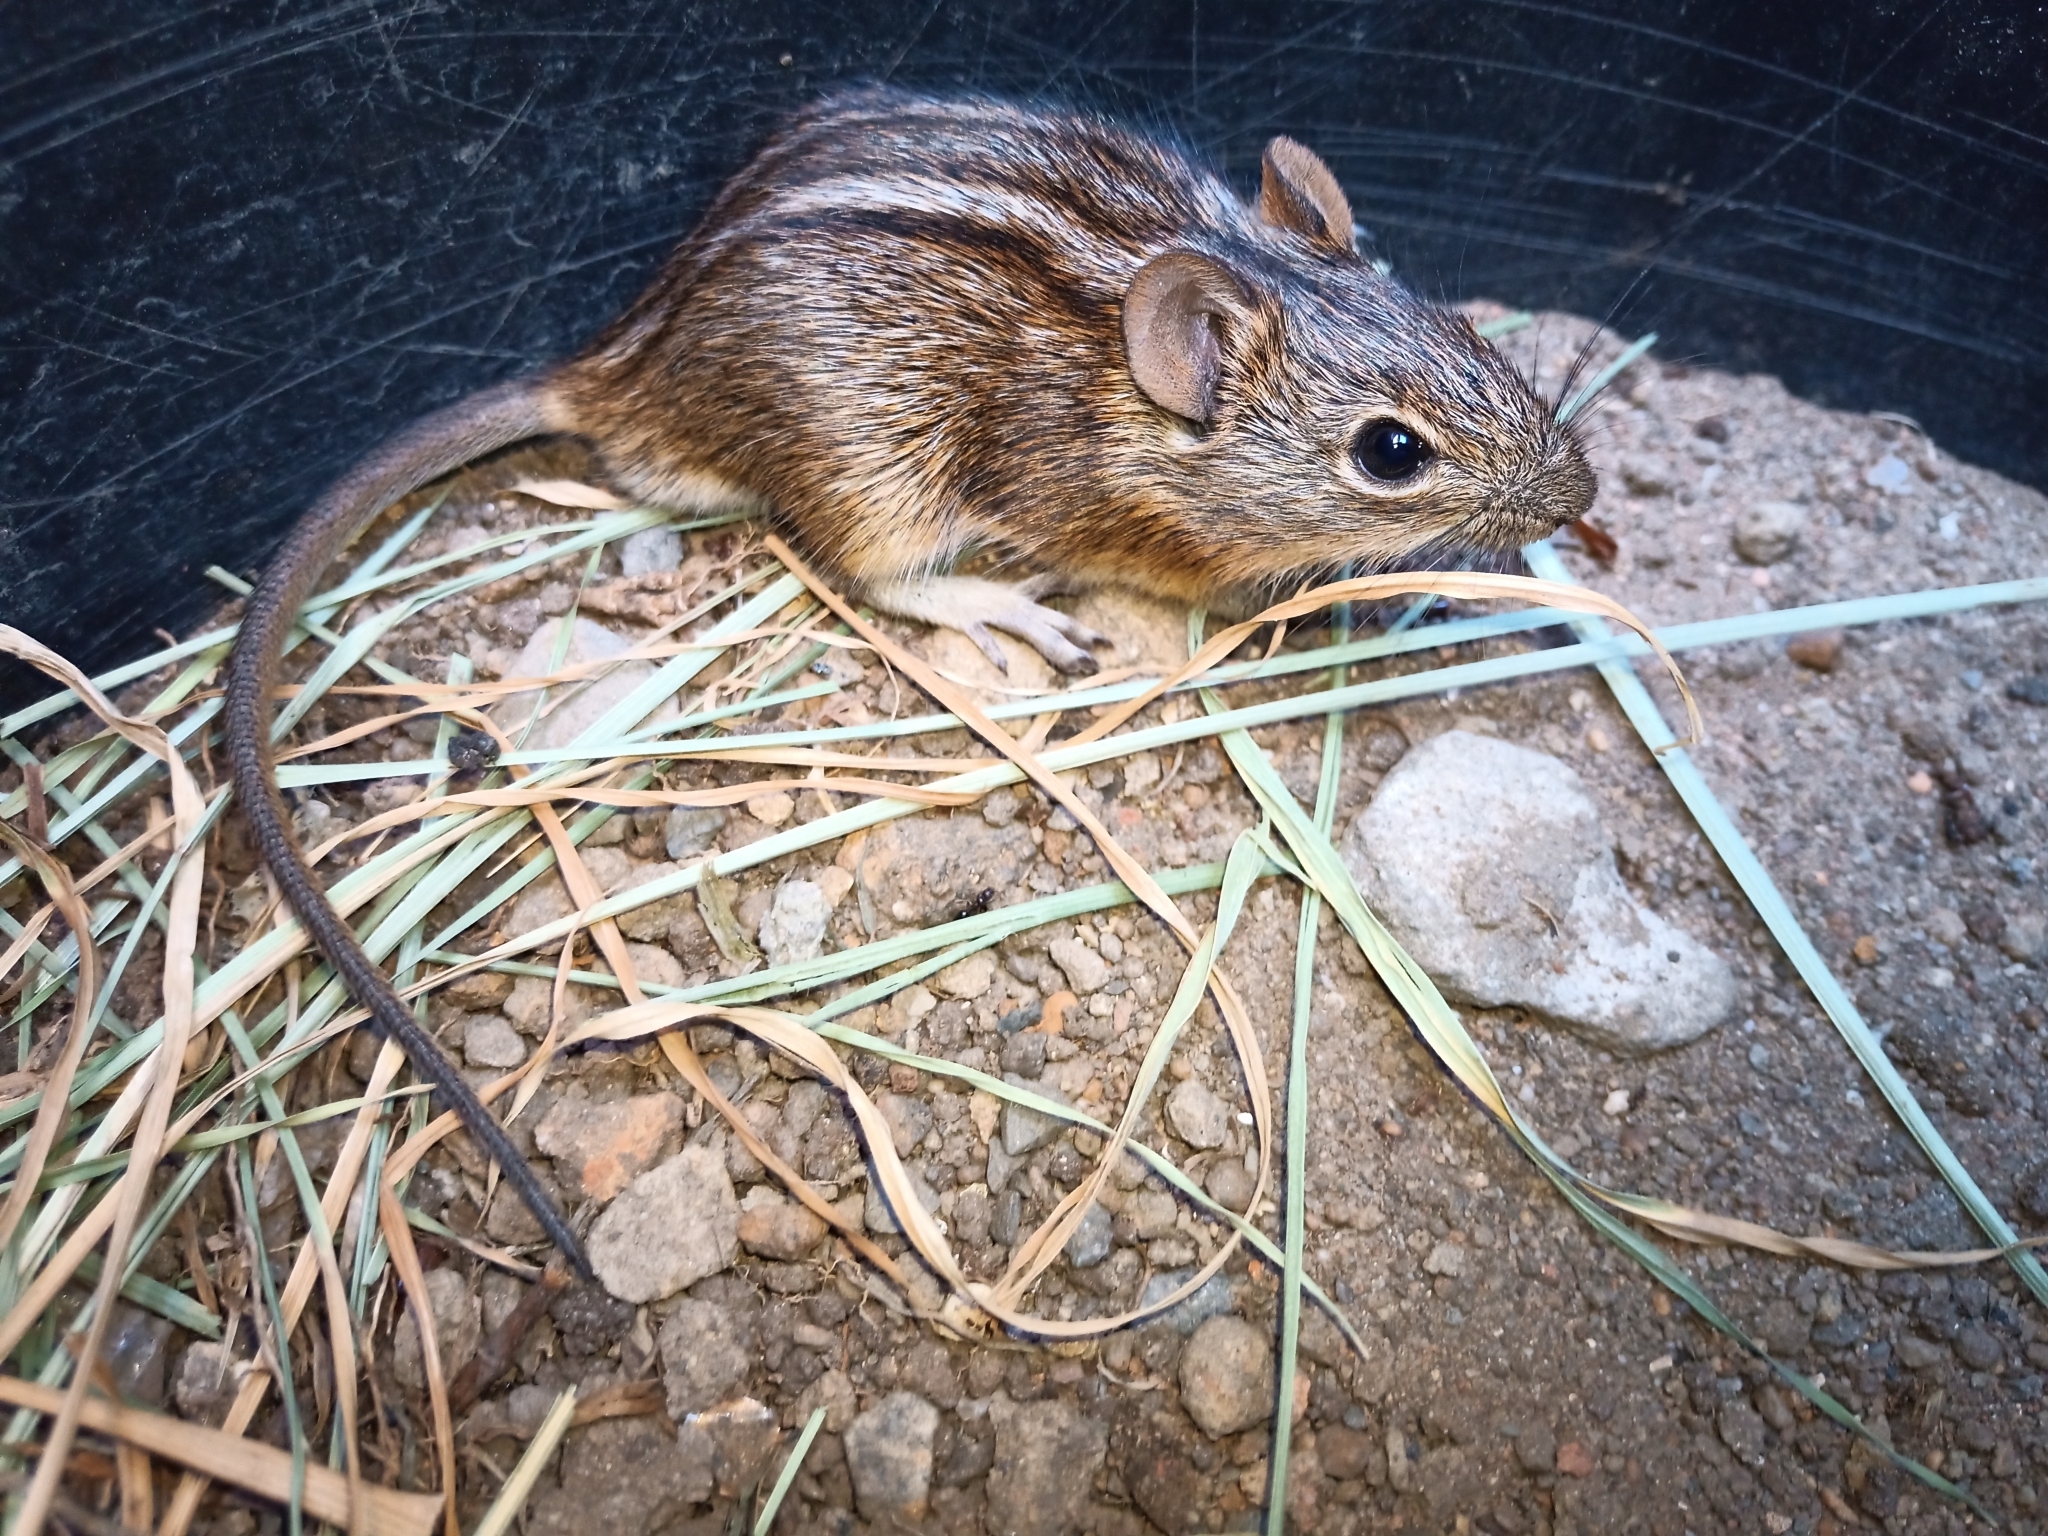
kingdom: Animalia
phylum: Chordata
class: Mammalia
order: Rodentia
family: Muridae
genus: Rhabdomys
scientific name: Rhabdomys pumilio
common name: Xeric four-striped grass rat
